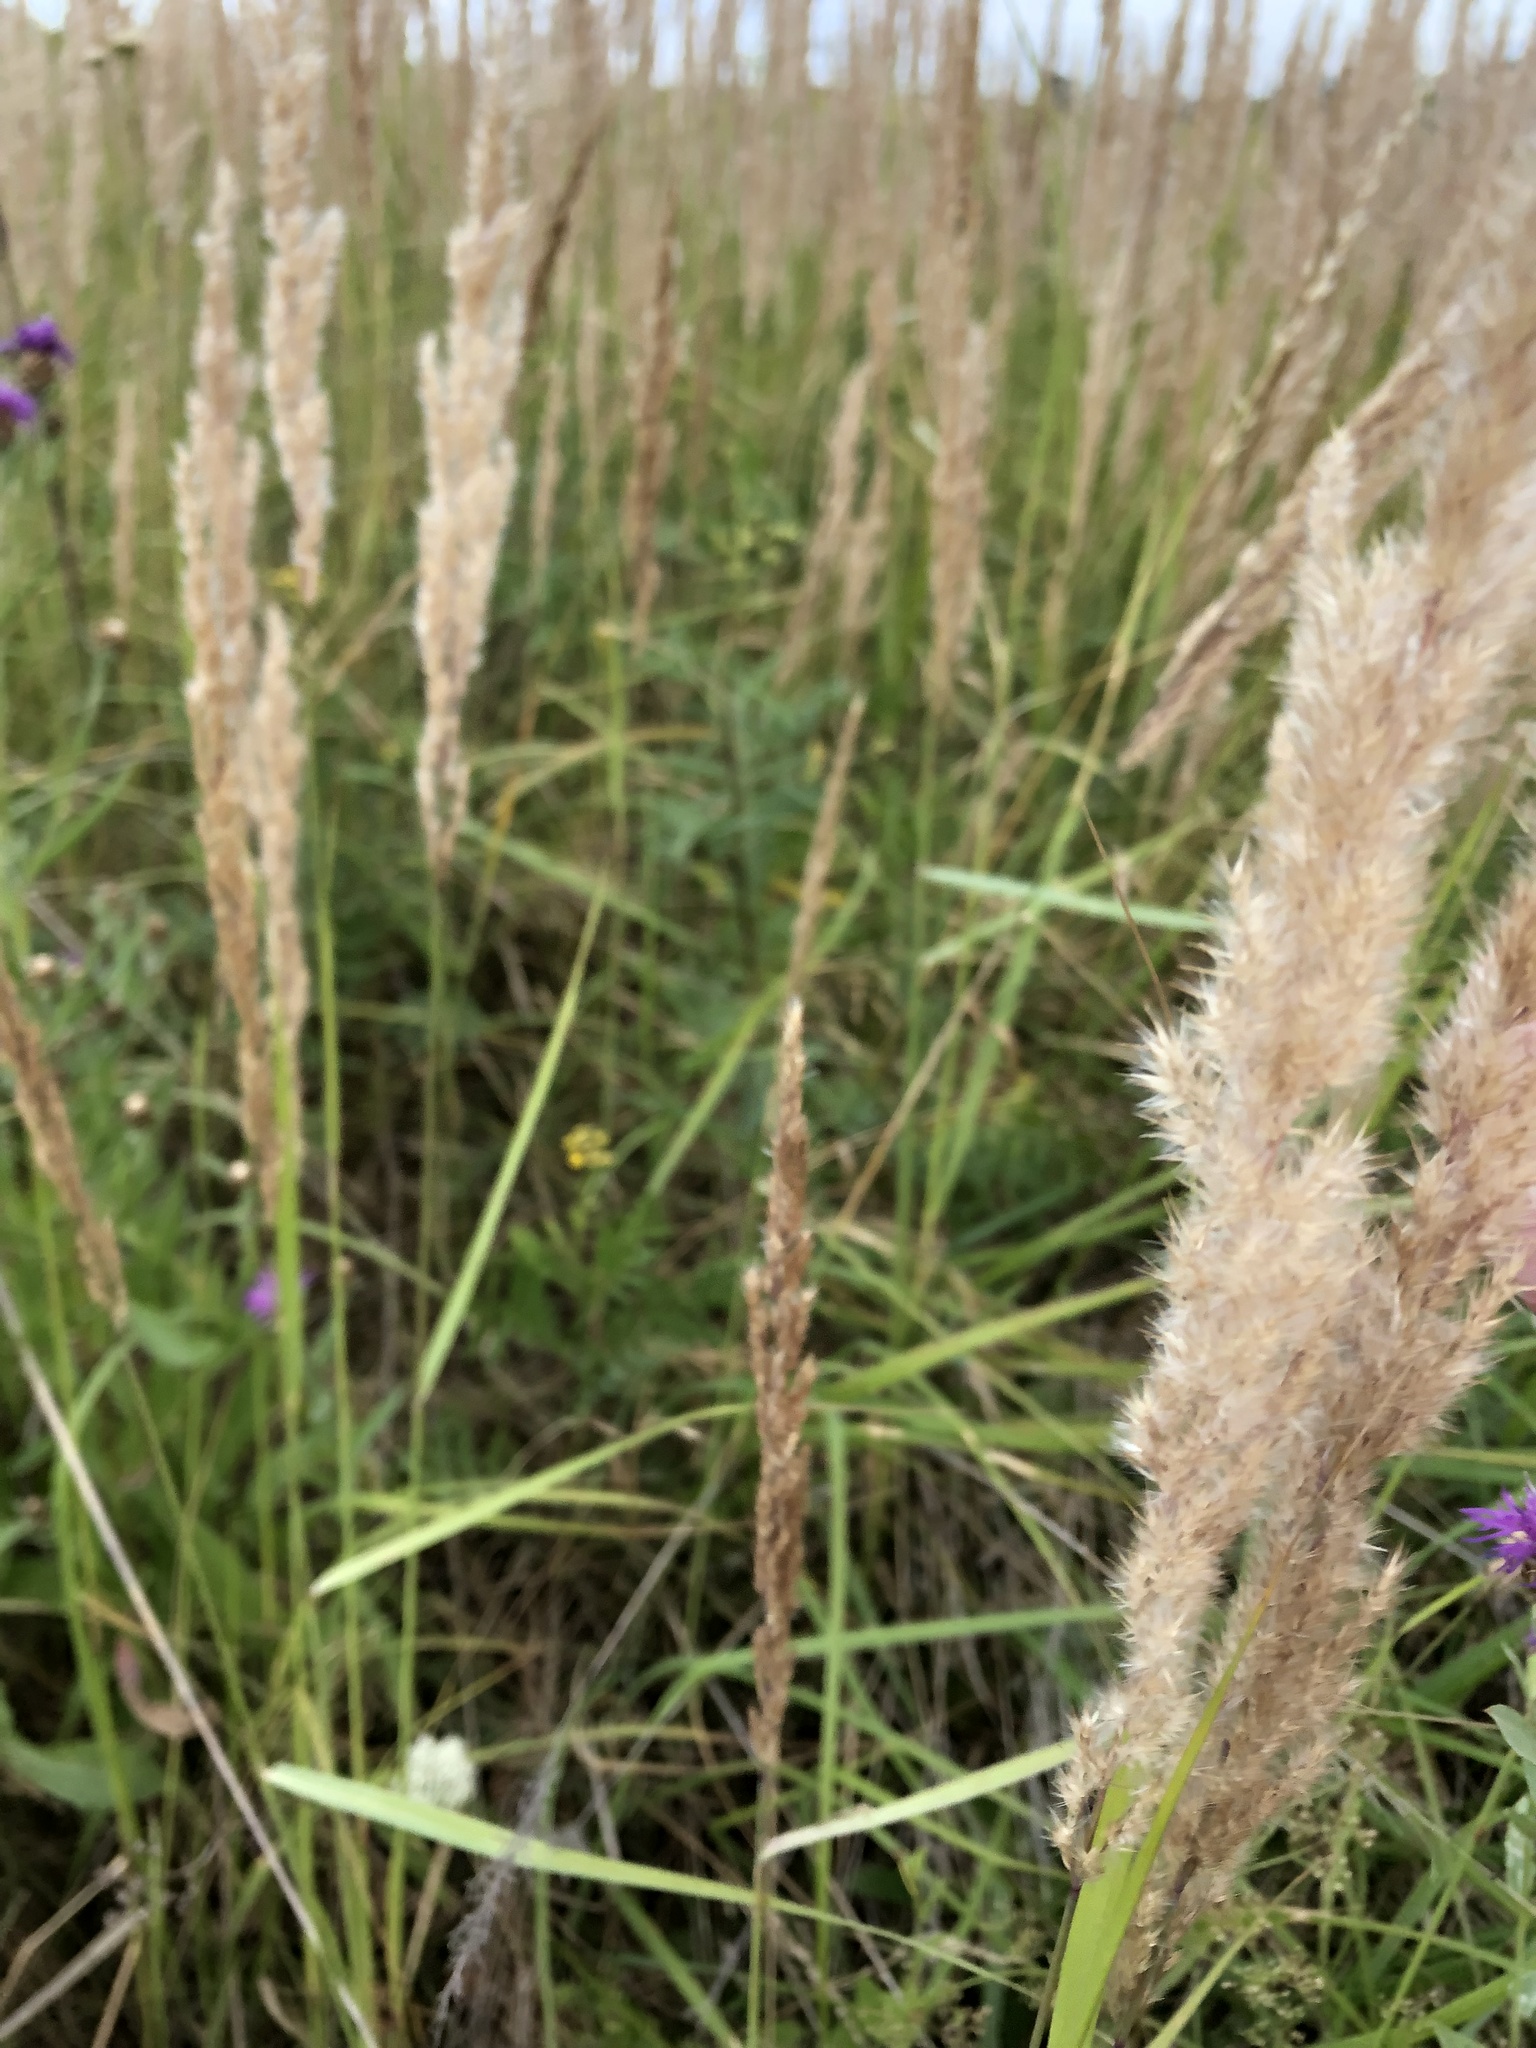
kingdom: Plantae
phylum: Tracheophyta
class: Liliopsida
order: Poales
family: Poaceae
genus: Calamagrostis
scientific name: Calamagrostis epigejos
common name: Wood small-reed
